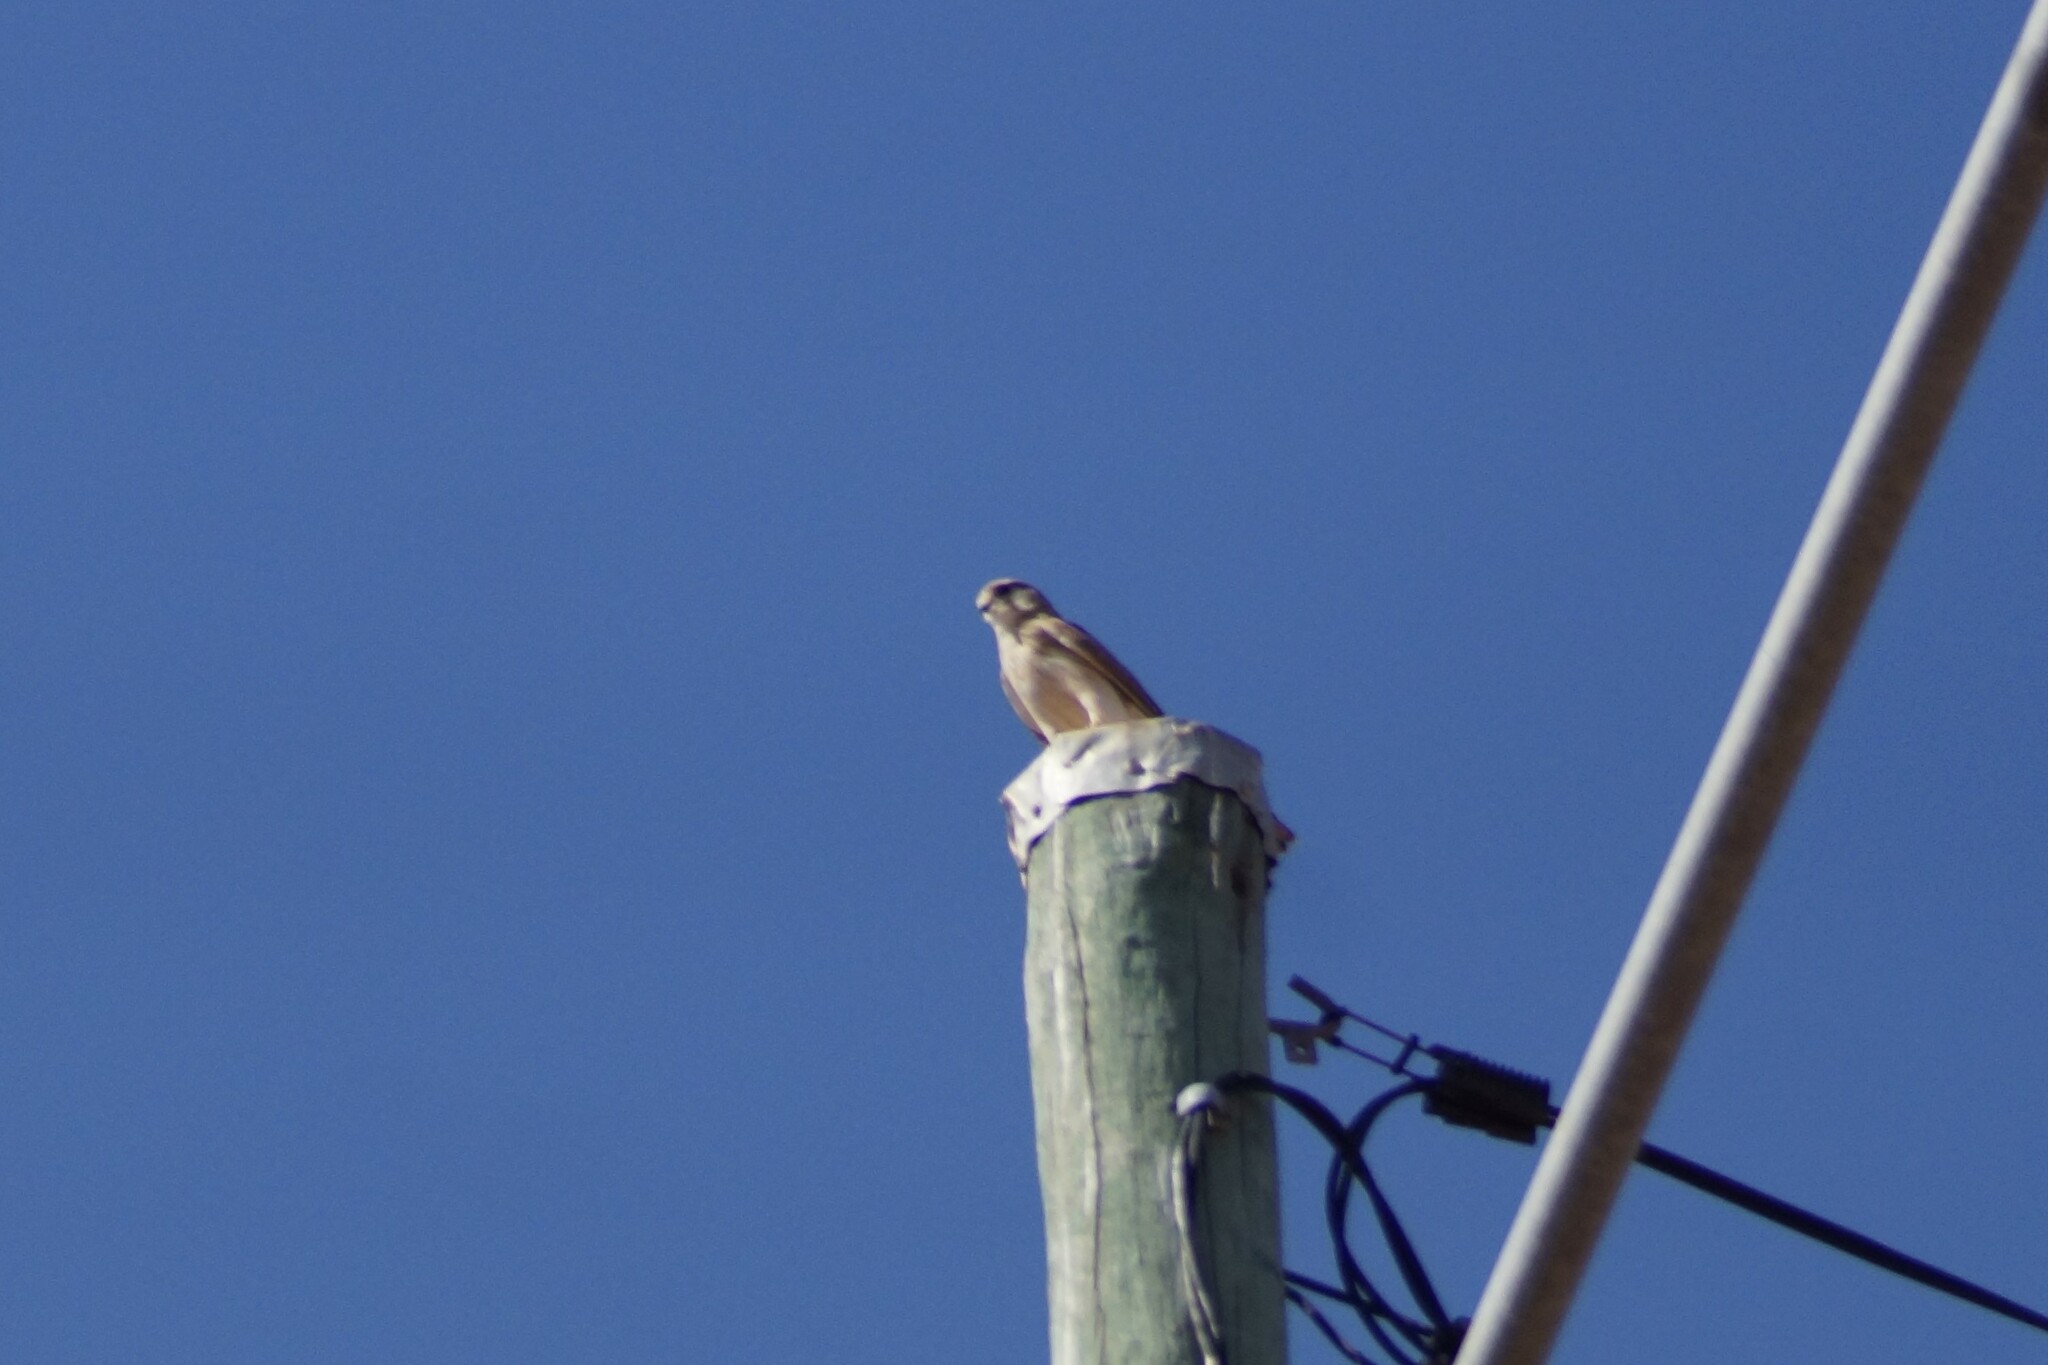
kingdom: Animalia
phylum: Chordata
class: Aves
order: Falconiformes
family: Falconidae
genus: Falco
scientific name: Falco cenchroides
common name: Nankeen kestrel
